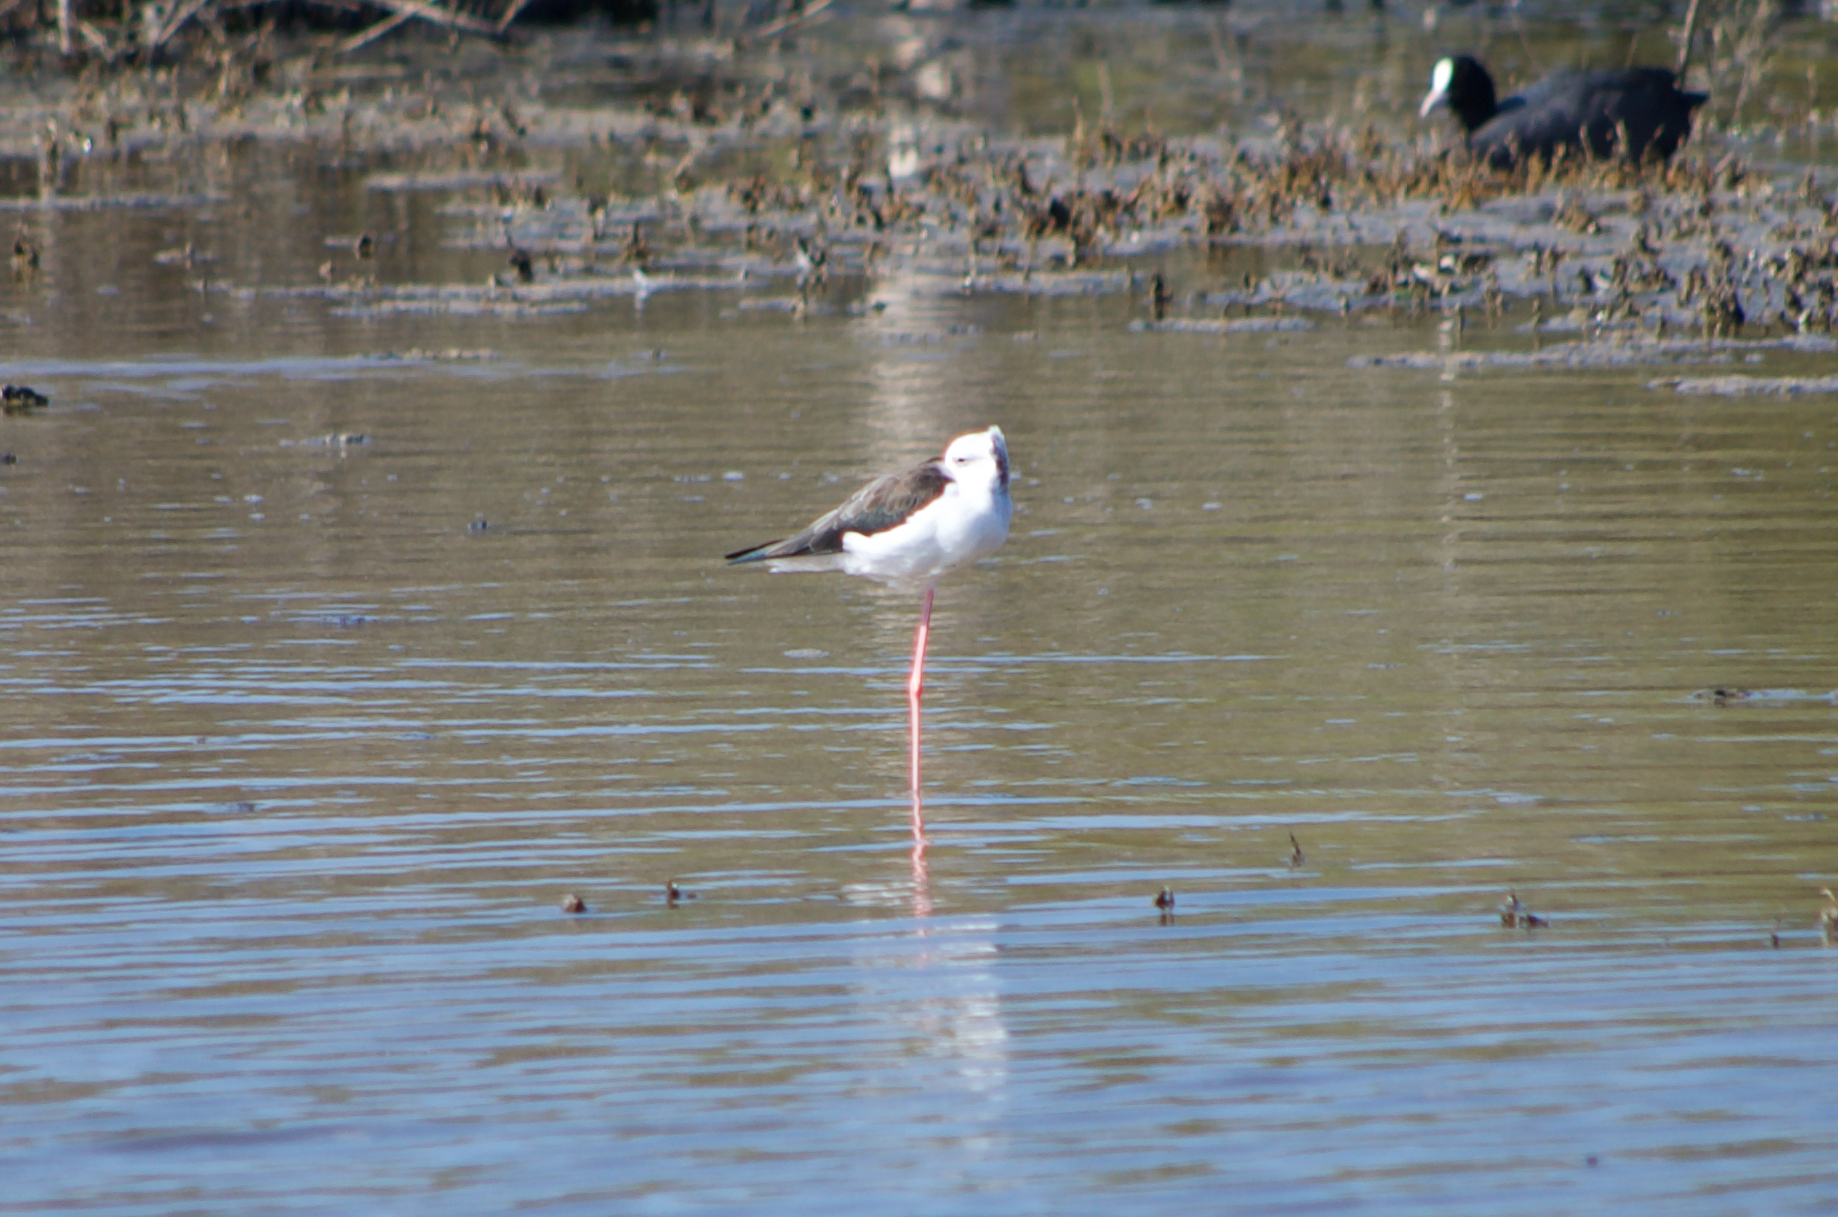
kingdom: Animalia
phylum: Chordata
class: Aves
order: Charadriiformes
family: Recurvirostridae
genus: Himantopus
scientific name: Himantopus himantopus
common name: Black-winged stilt
